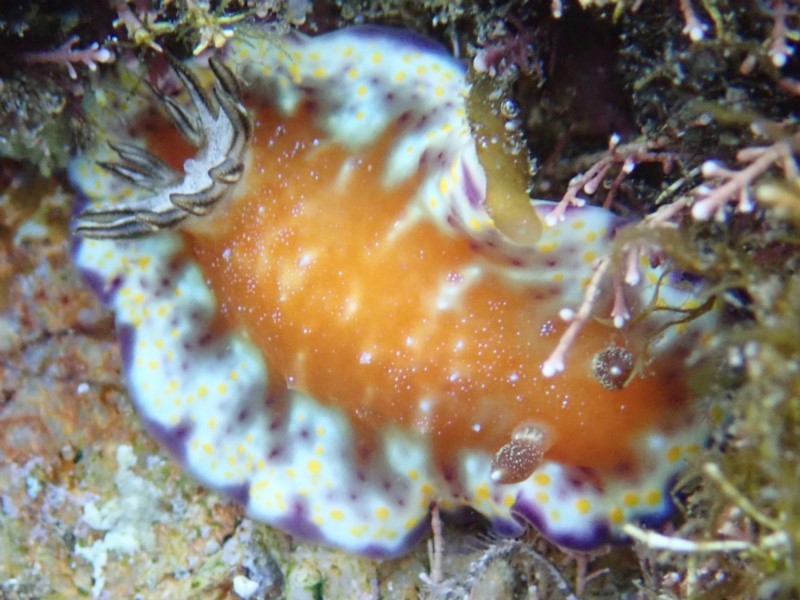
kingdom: Animalia
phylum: Mollusca
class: Gastropoda
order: Nudibranchia
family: Chromodorididae
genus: Goniobranchus
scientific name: Goniobranchus collingwoodi
